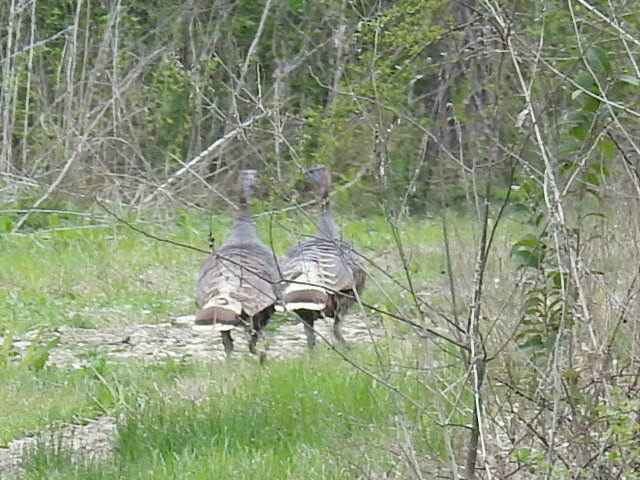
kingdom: Animalia
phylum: Chordata
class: Aves
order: Galliformes
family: Phasianidae
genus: Meleagris
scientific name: Meleagris gallopavo
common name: Wild turkey
